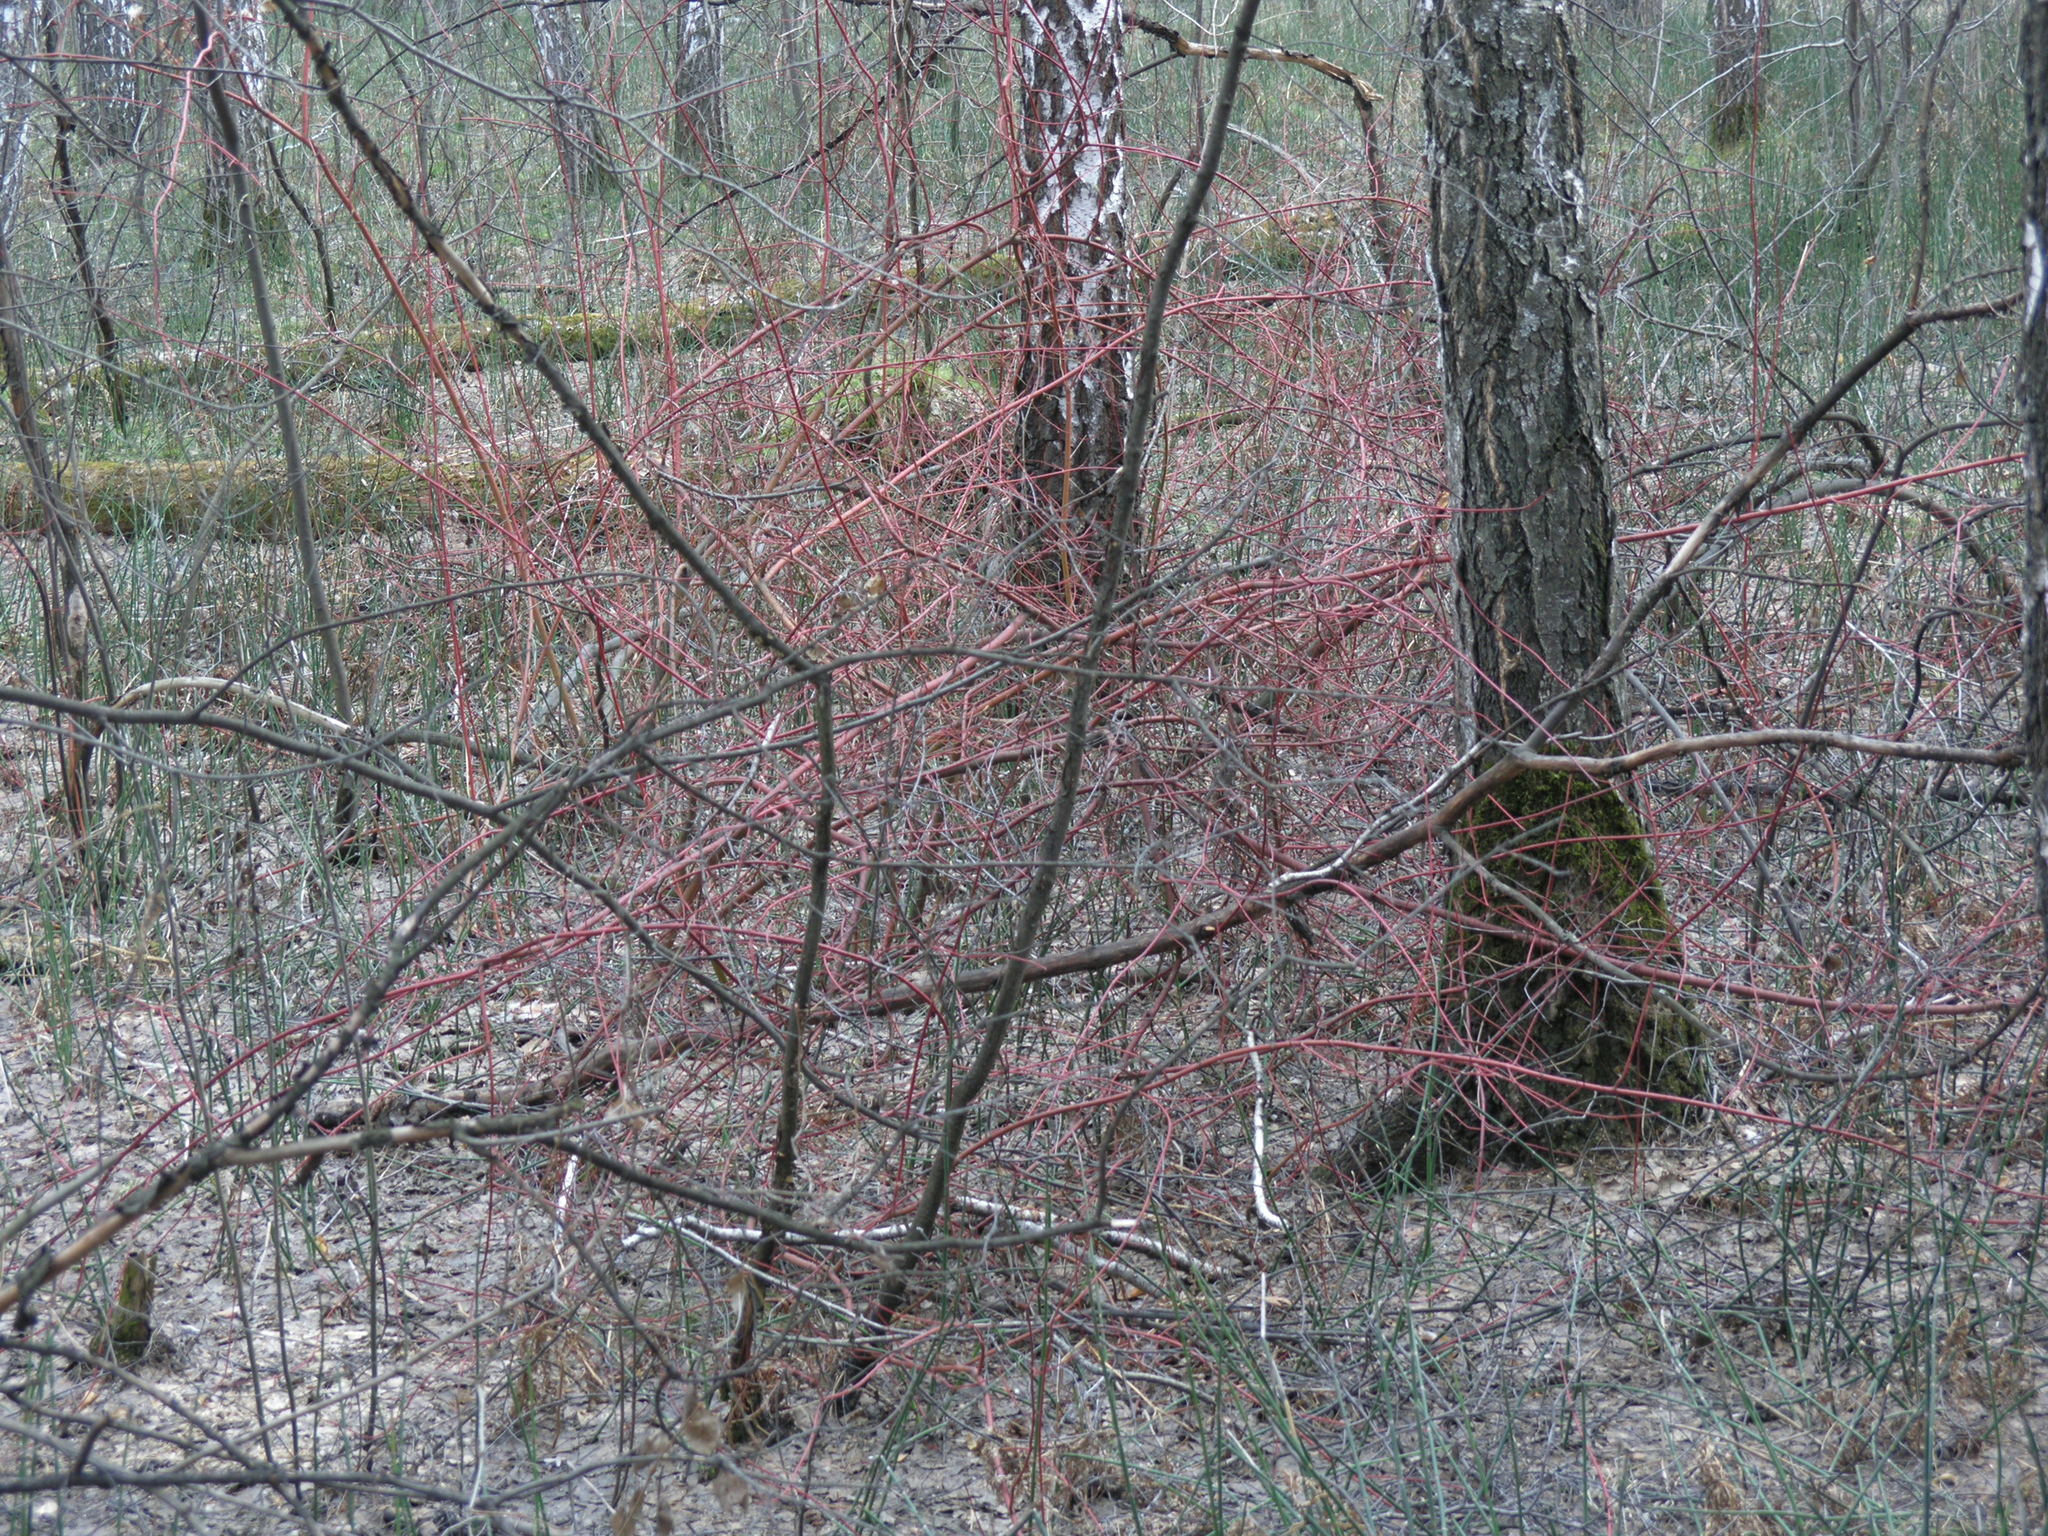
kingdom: Plantae
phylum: Tracheophyta
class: Magnoliopsida
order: Cornales
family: Cornaceae
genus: Cornus
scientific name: Cornus alba
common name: White dogwood
